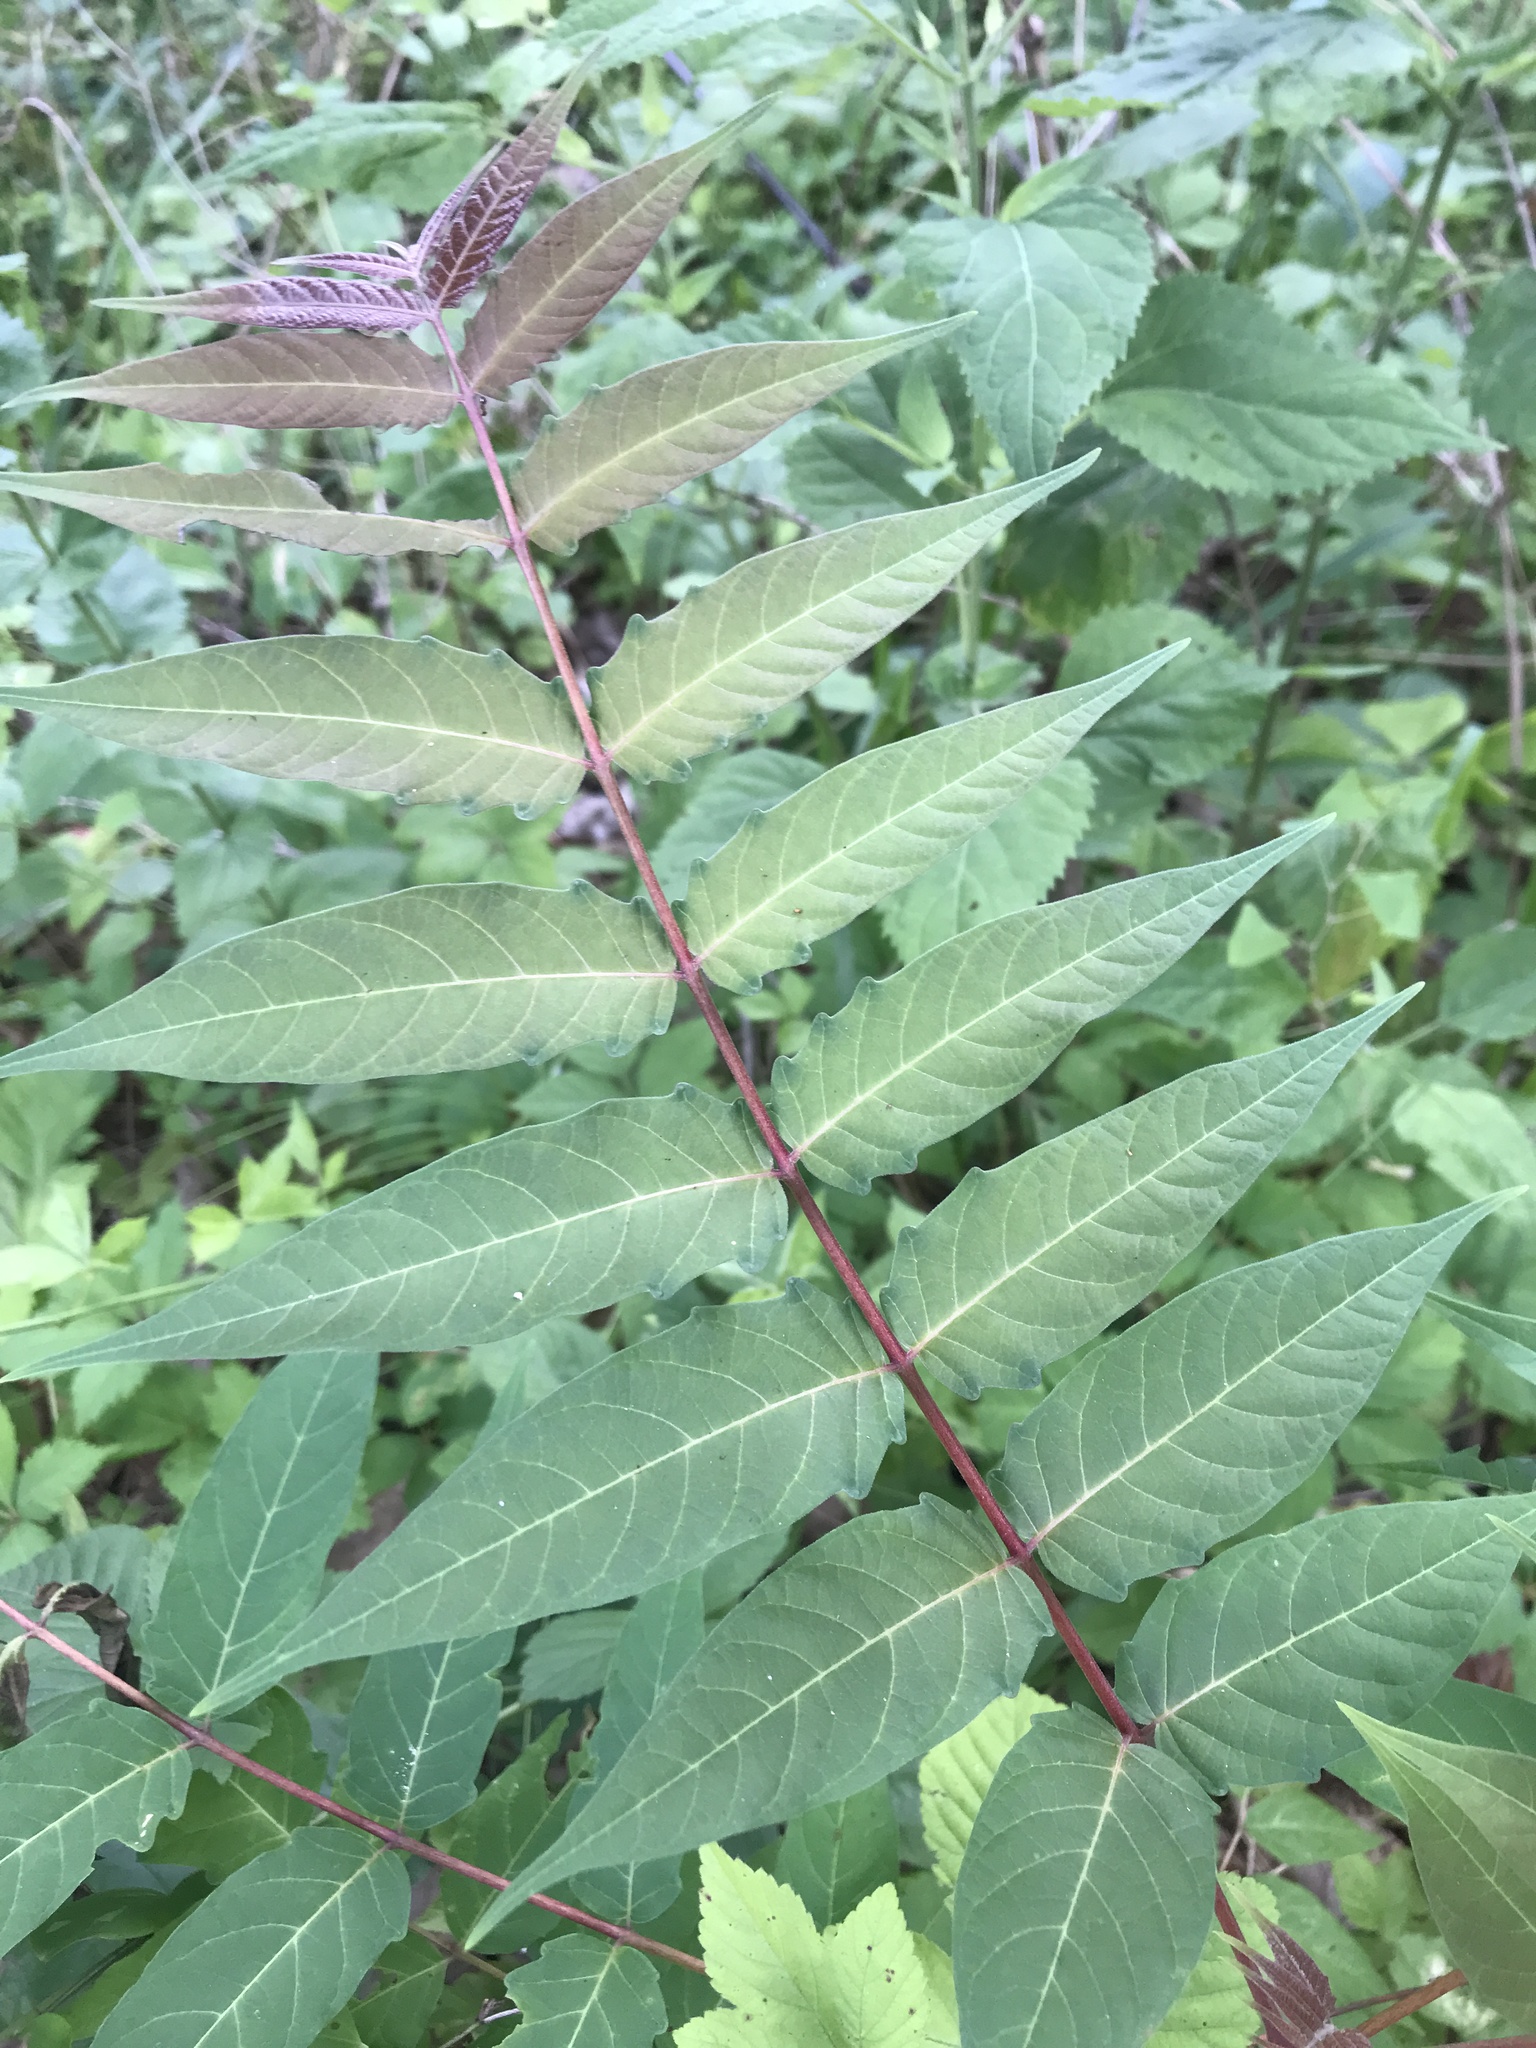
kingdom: Plantae
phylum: Tracheophyta
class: Magnoliopsida
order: Sapindales
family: Simaroubaceae
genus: Ailanthus
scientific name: Ailanthus altissima
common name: Tree-of-heaven
